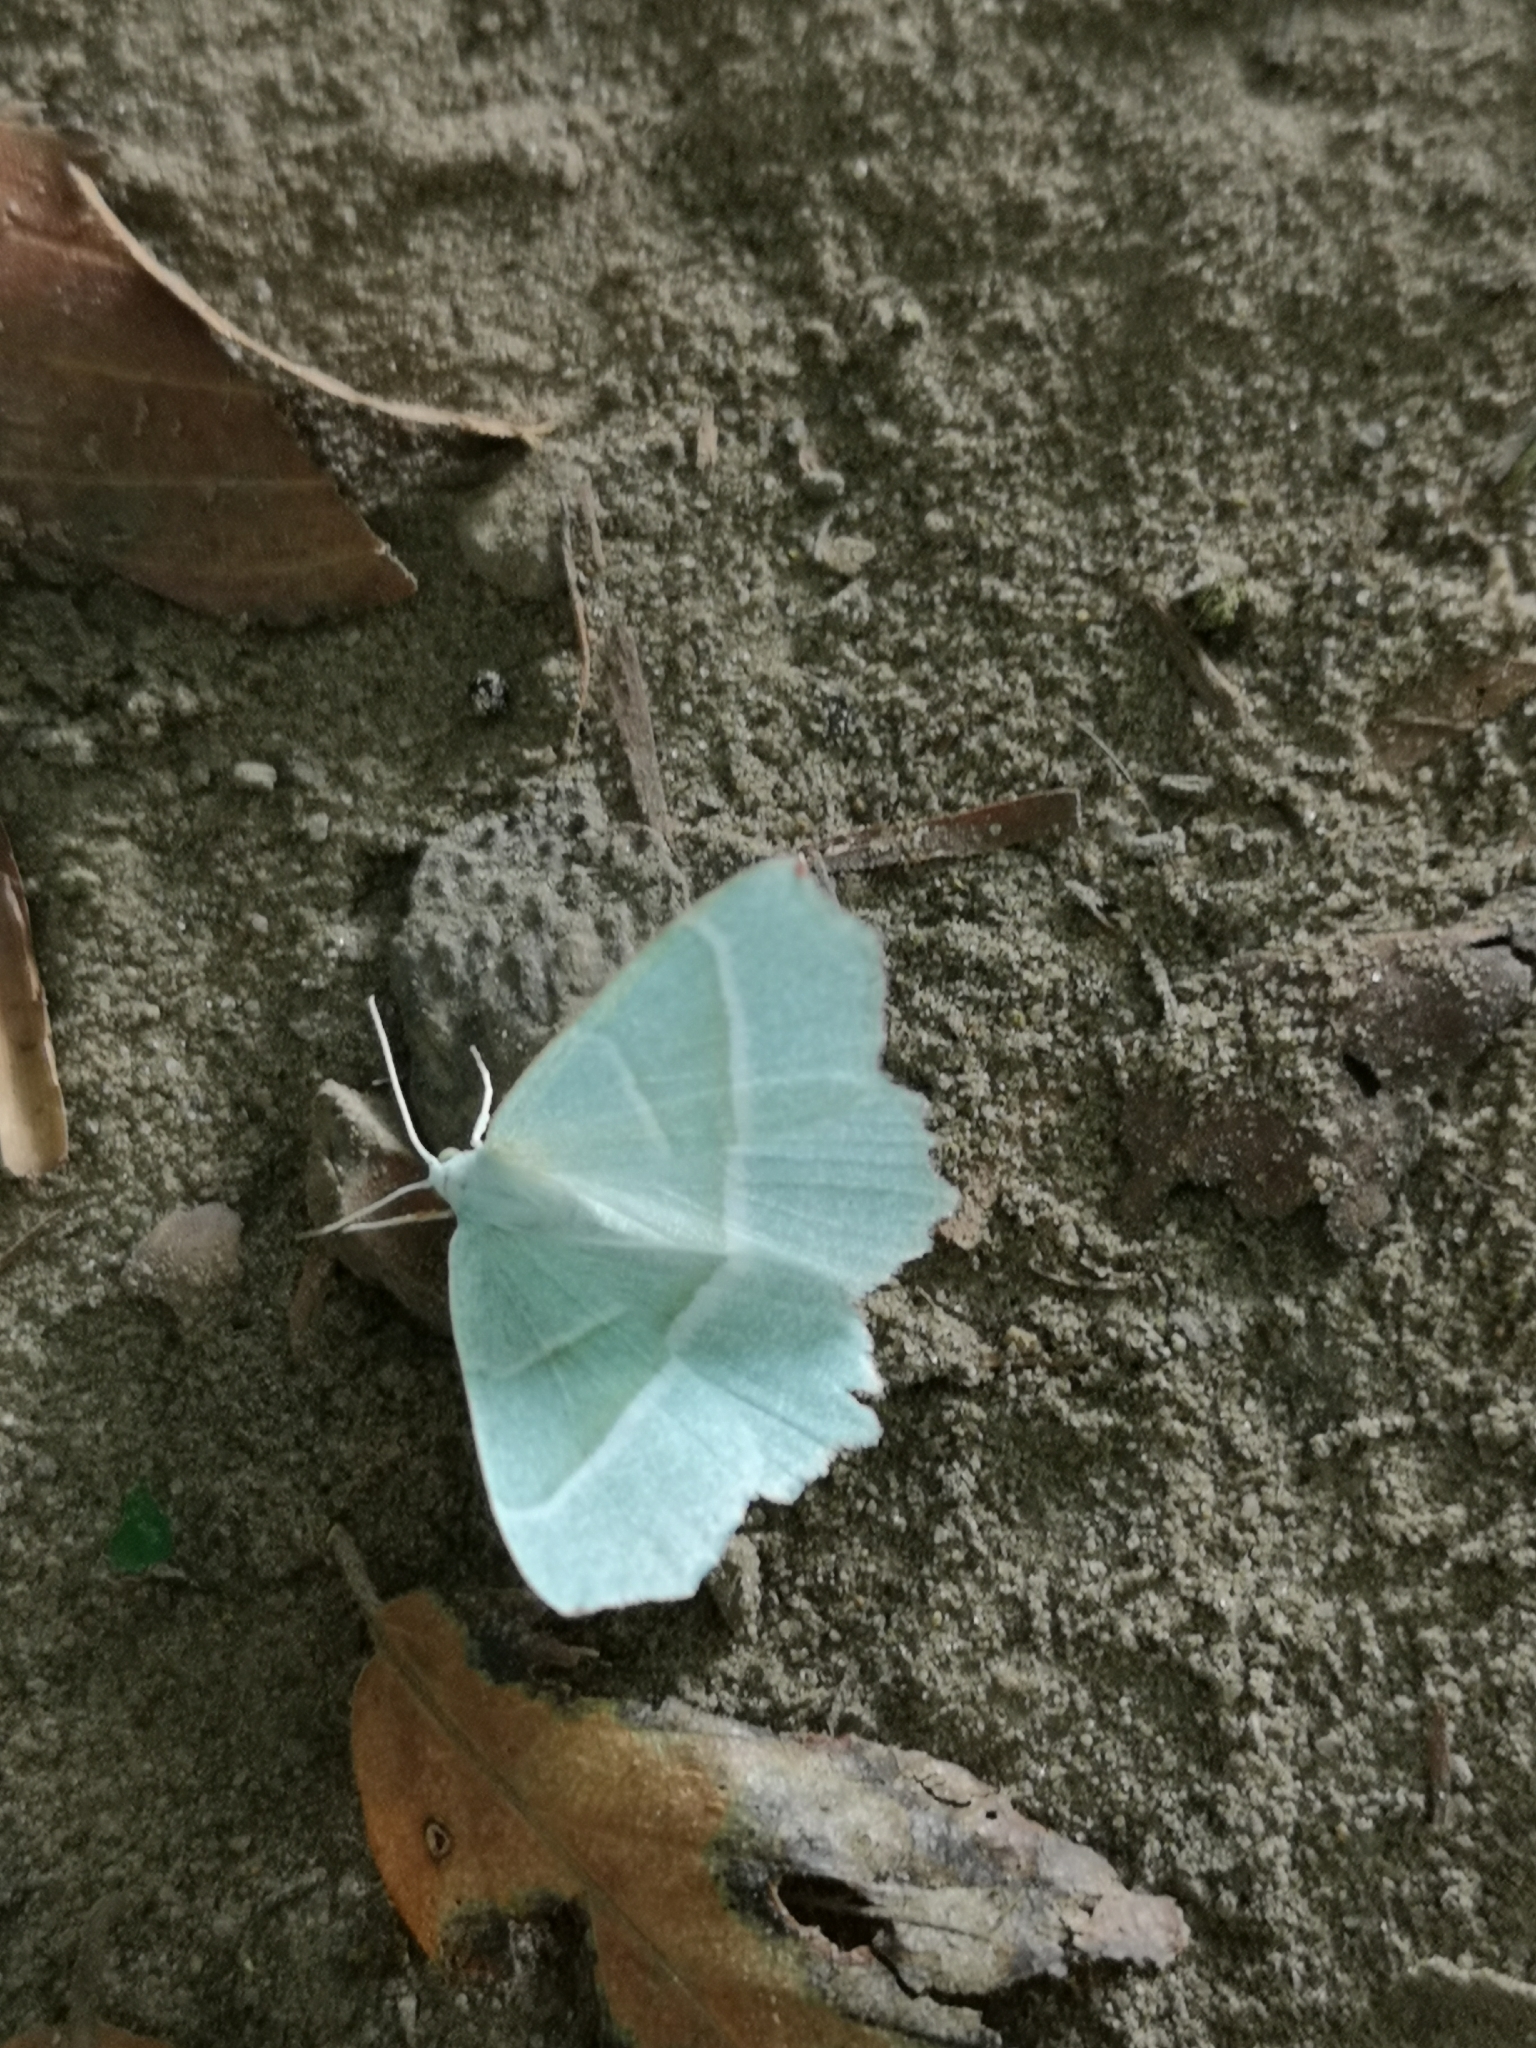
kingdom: Animalia
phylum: Arthropoda
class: Insecta
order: Lepidoptera
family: Geometridae
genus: Campaea
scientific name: Campaea margaritaria
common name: Light emerald
